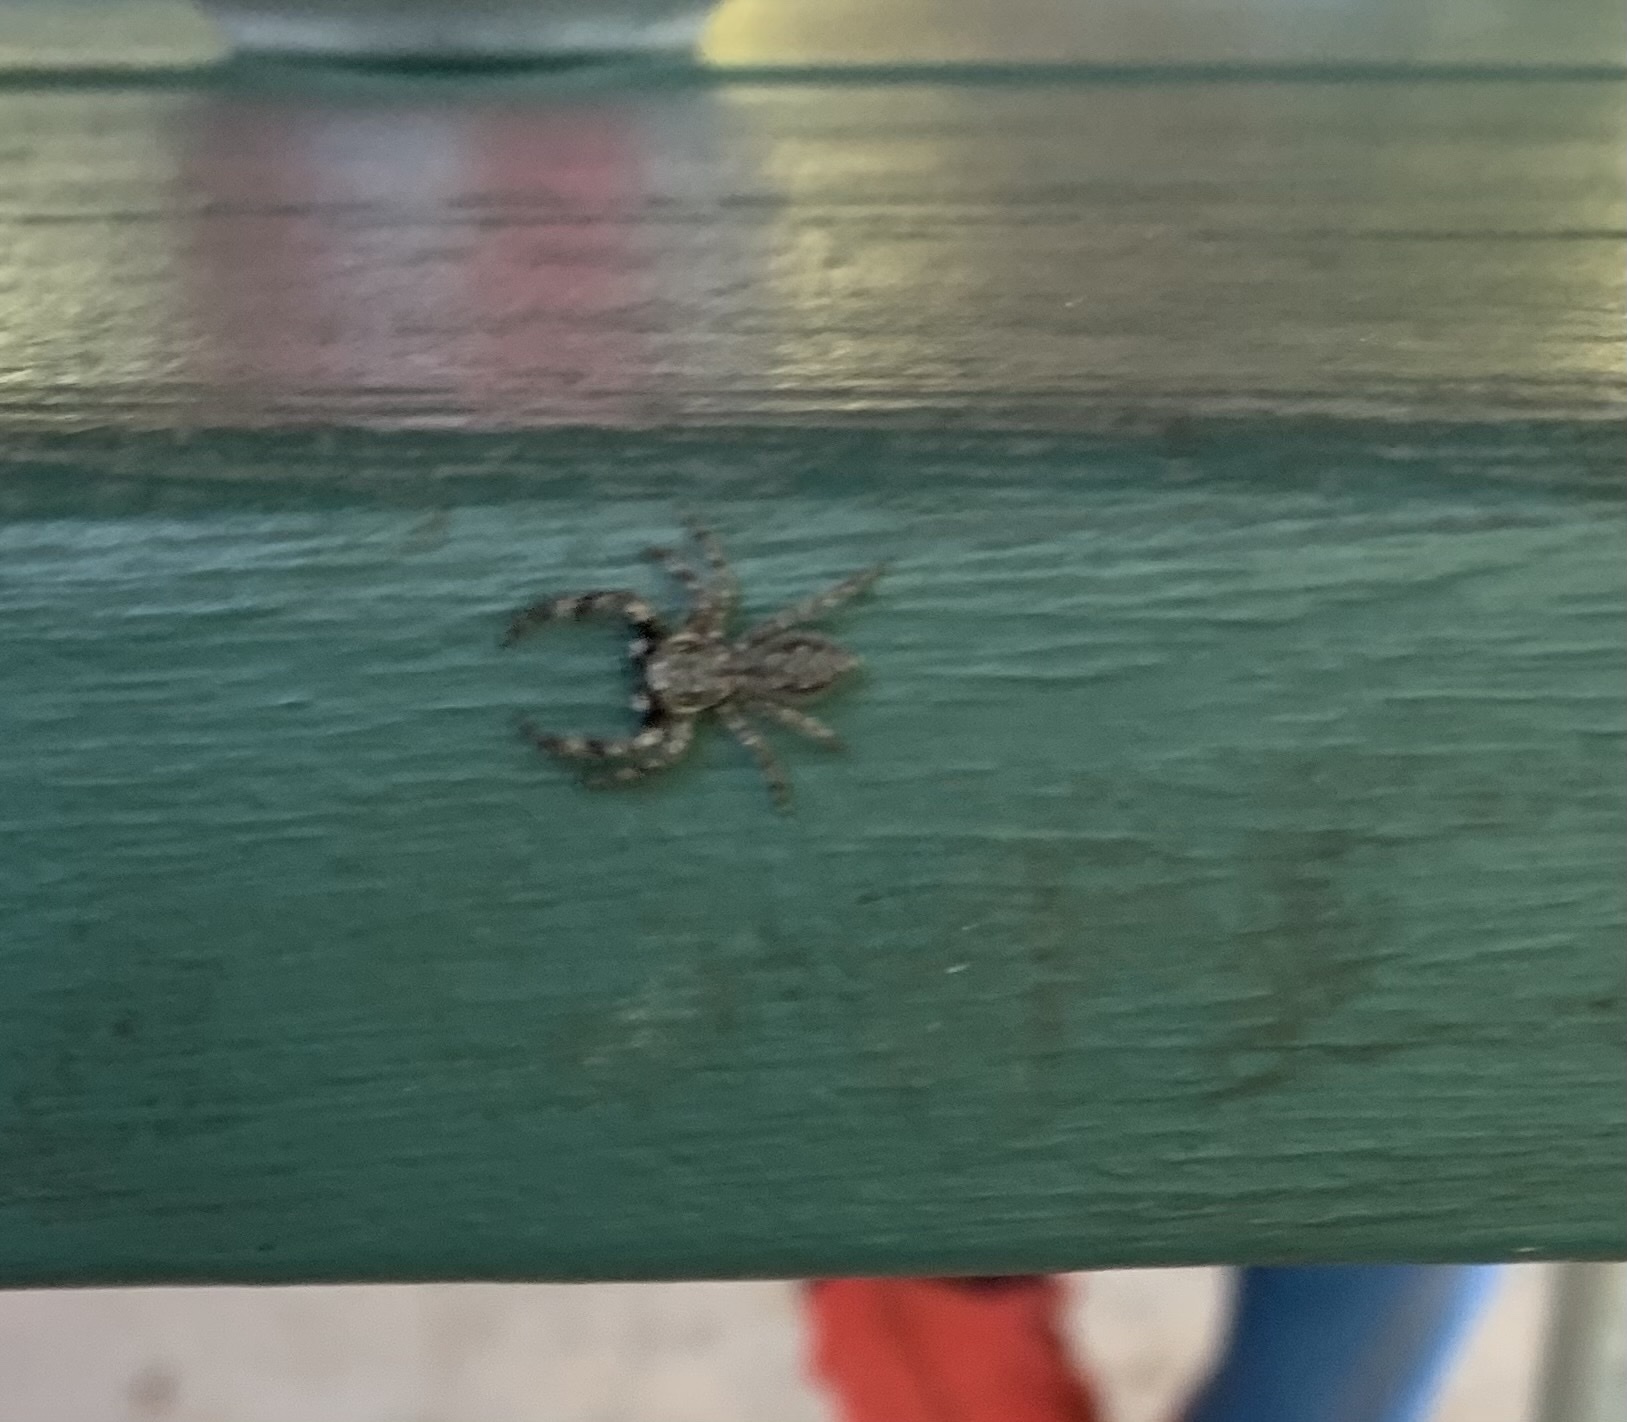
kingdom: Animalia
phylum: Arthropoda
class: Arachnida
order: Araneae
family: Salticidae
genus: Platycryptus
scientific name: Platycryptus undatus
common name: Tan jumping spider
